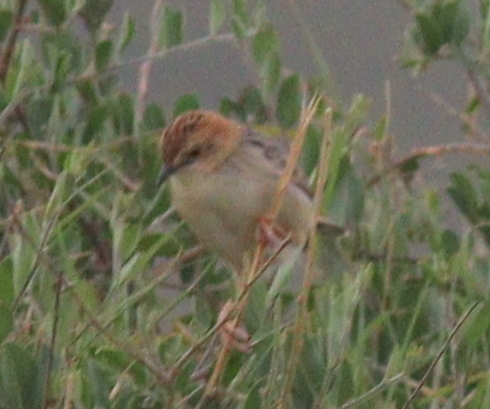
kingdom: Animalia
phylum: Chordata
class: Aves
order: Passeriformes
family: Cisticolidae
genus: Cisticola
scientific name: Cisticola robustus
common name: Stout cisticola
